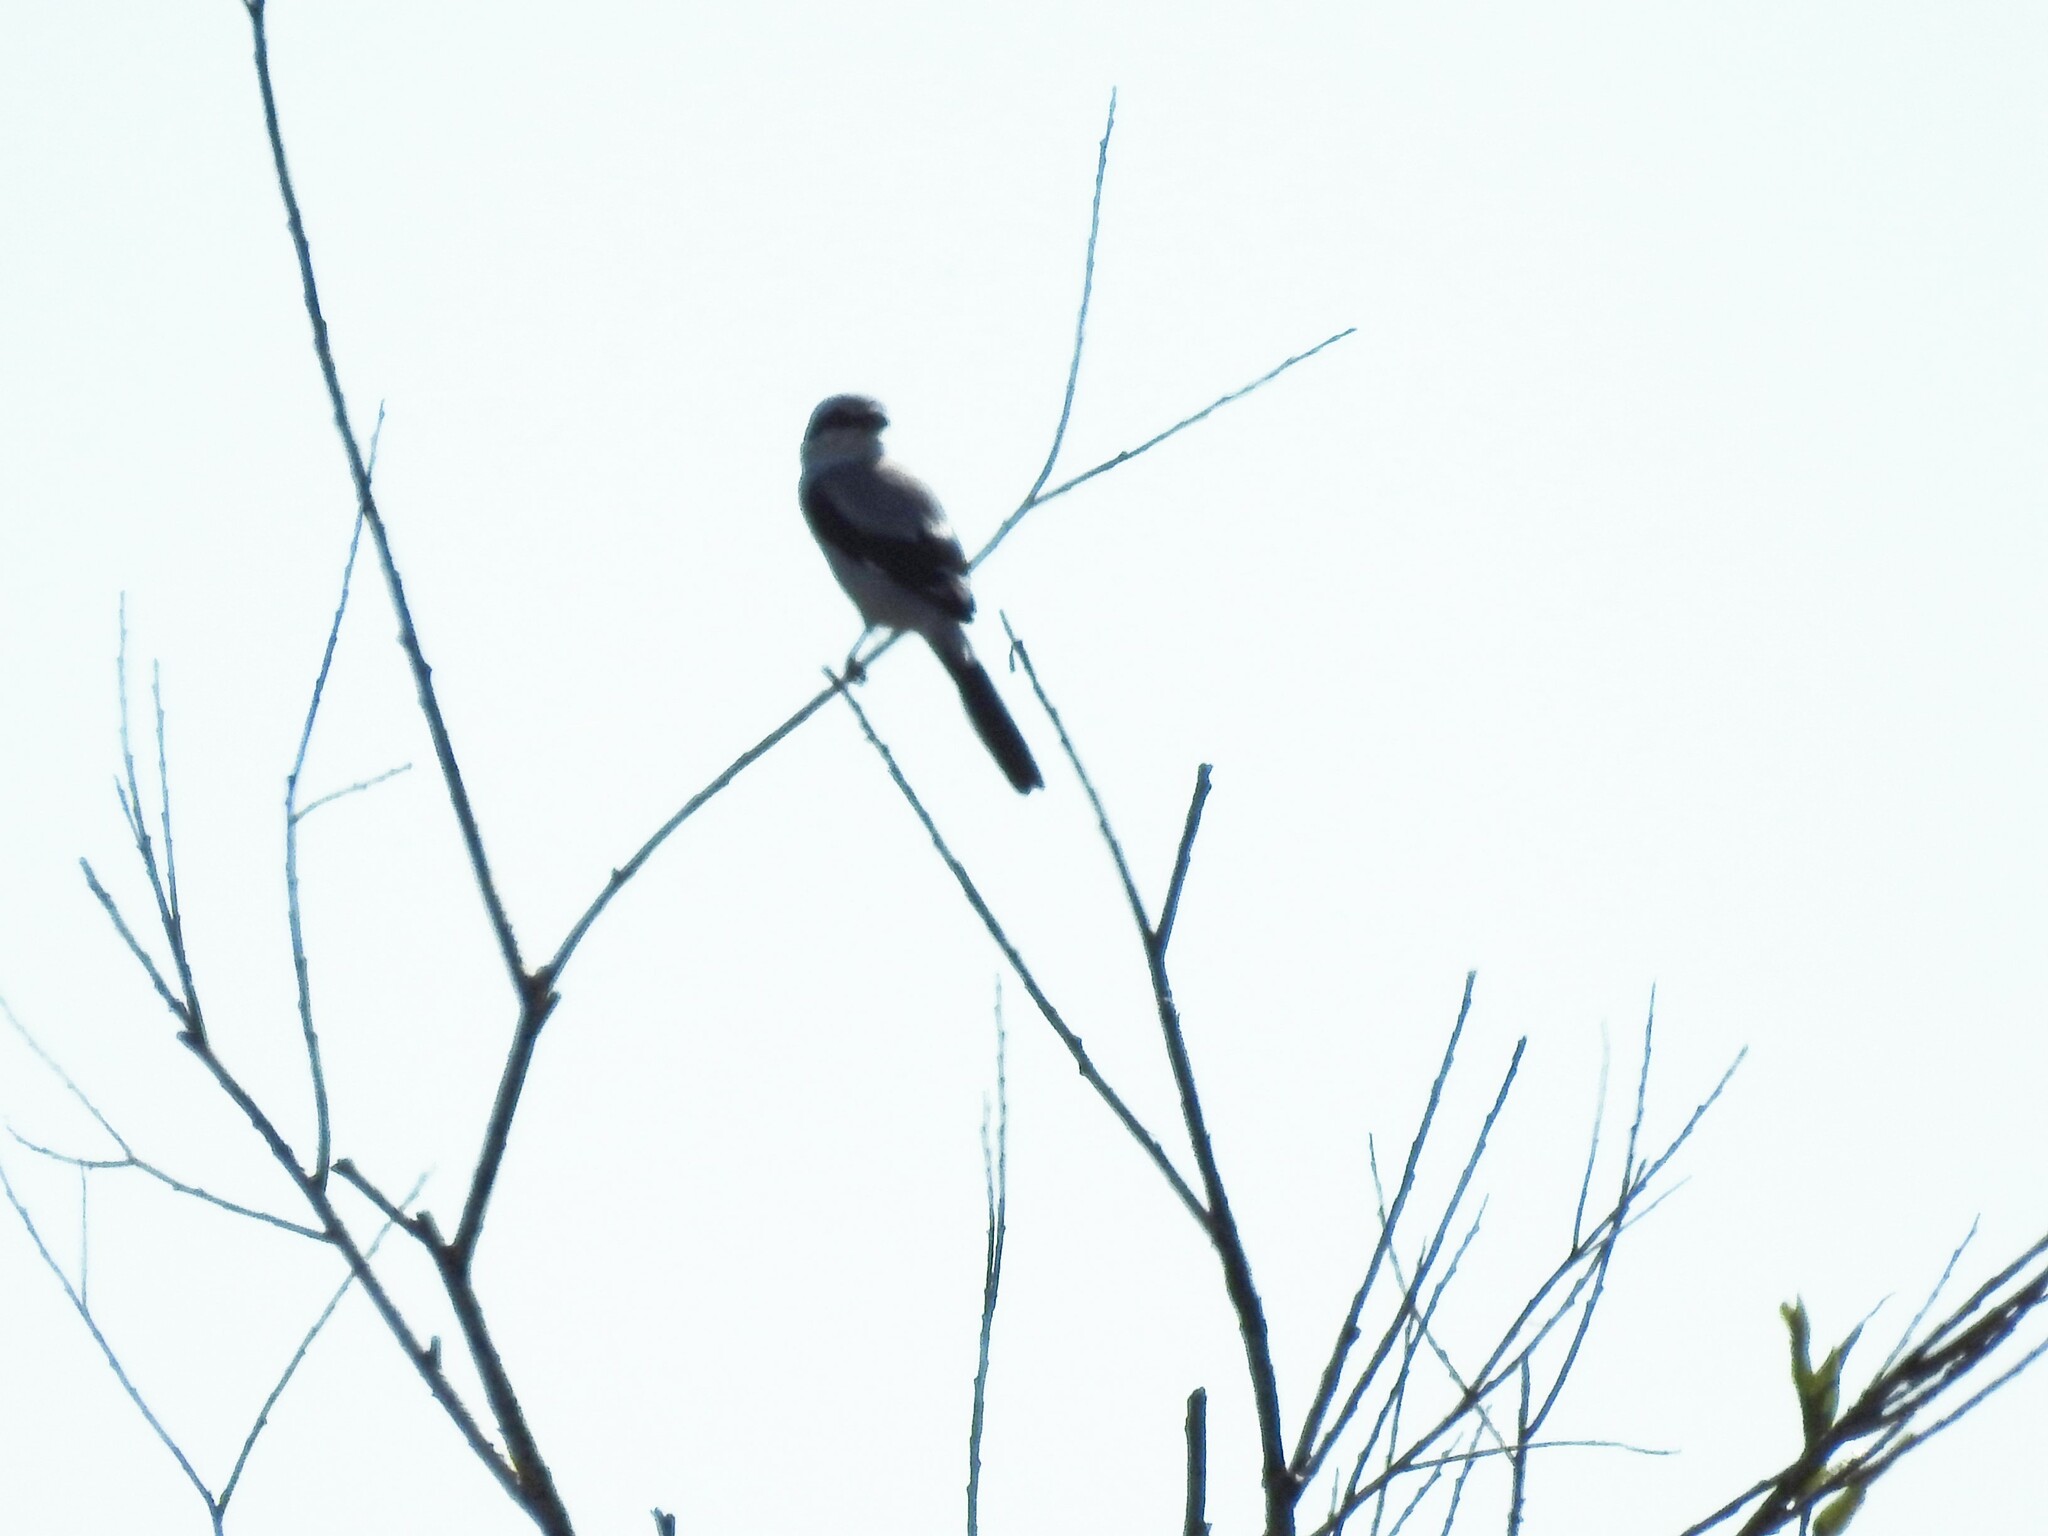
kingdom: Animalia
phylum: Chordata
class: Aves
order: Passeriformes
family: Laniidae
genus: Lanius
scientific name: Lanius excubitor
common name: Great grey shrike
